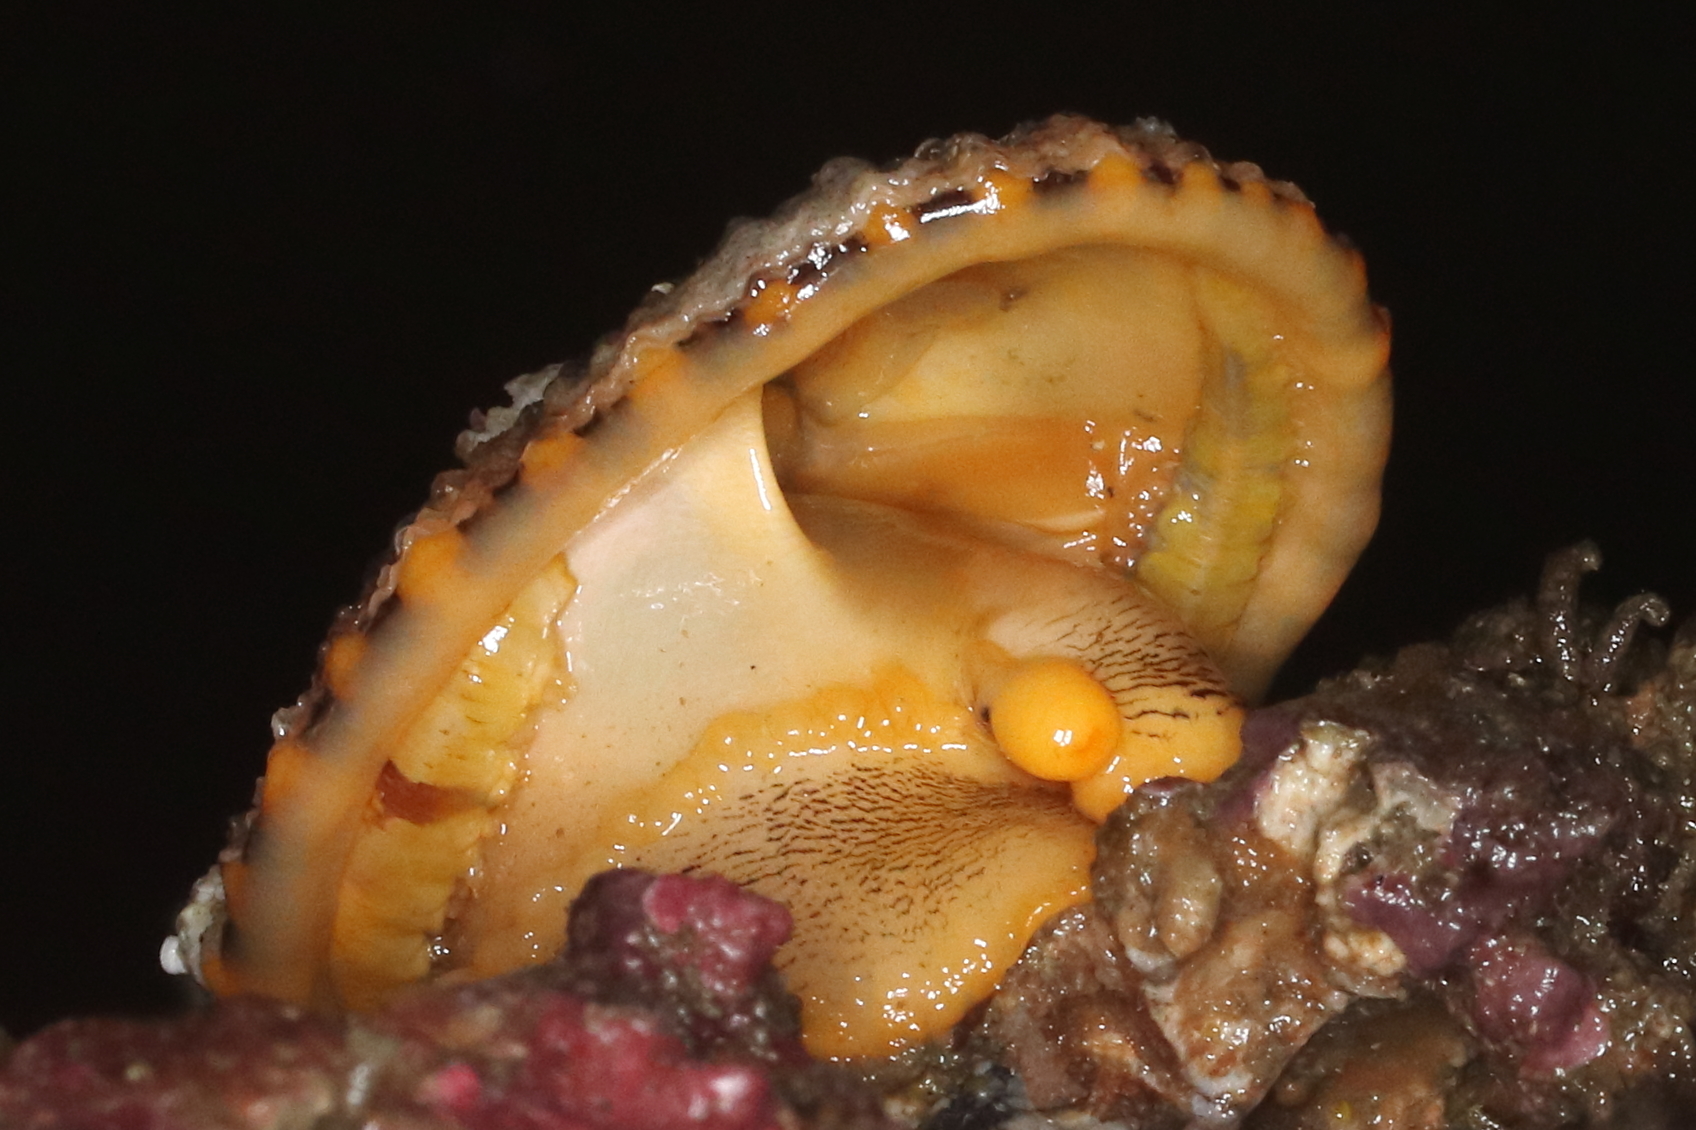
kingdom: Animalia
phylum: Mollusca
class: Gastropoda
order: Lepetellida
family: Fissurellidae
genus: Diodora
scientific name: Diodora aspera
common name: Rough keyhole limpet
